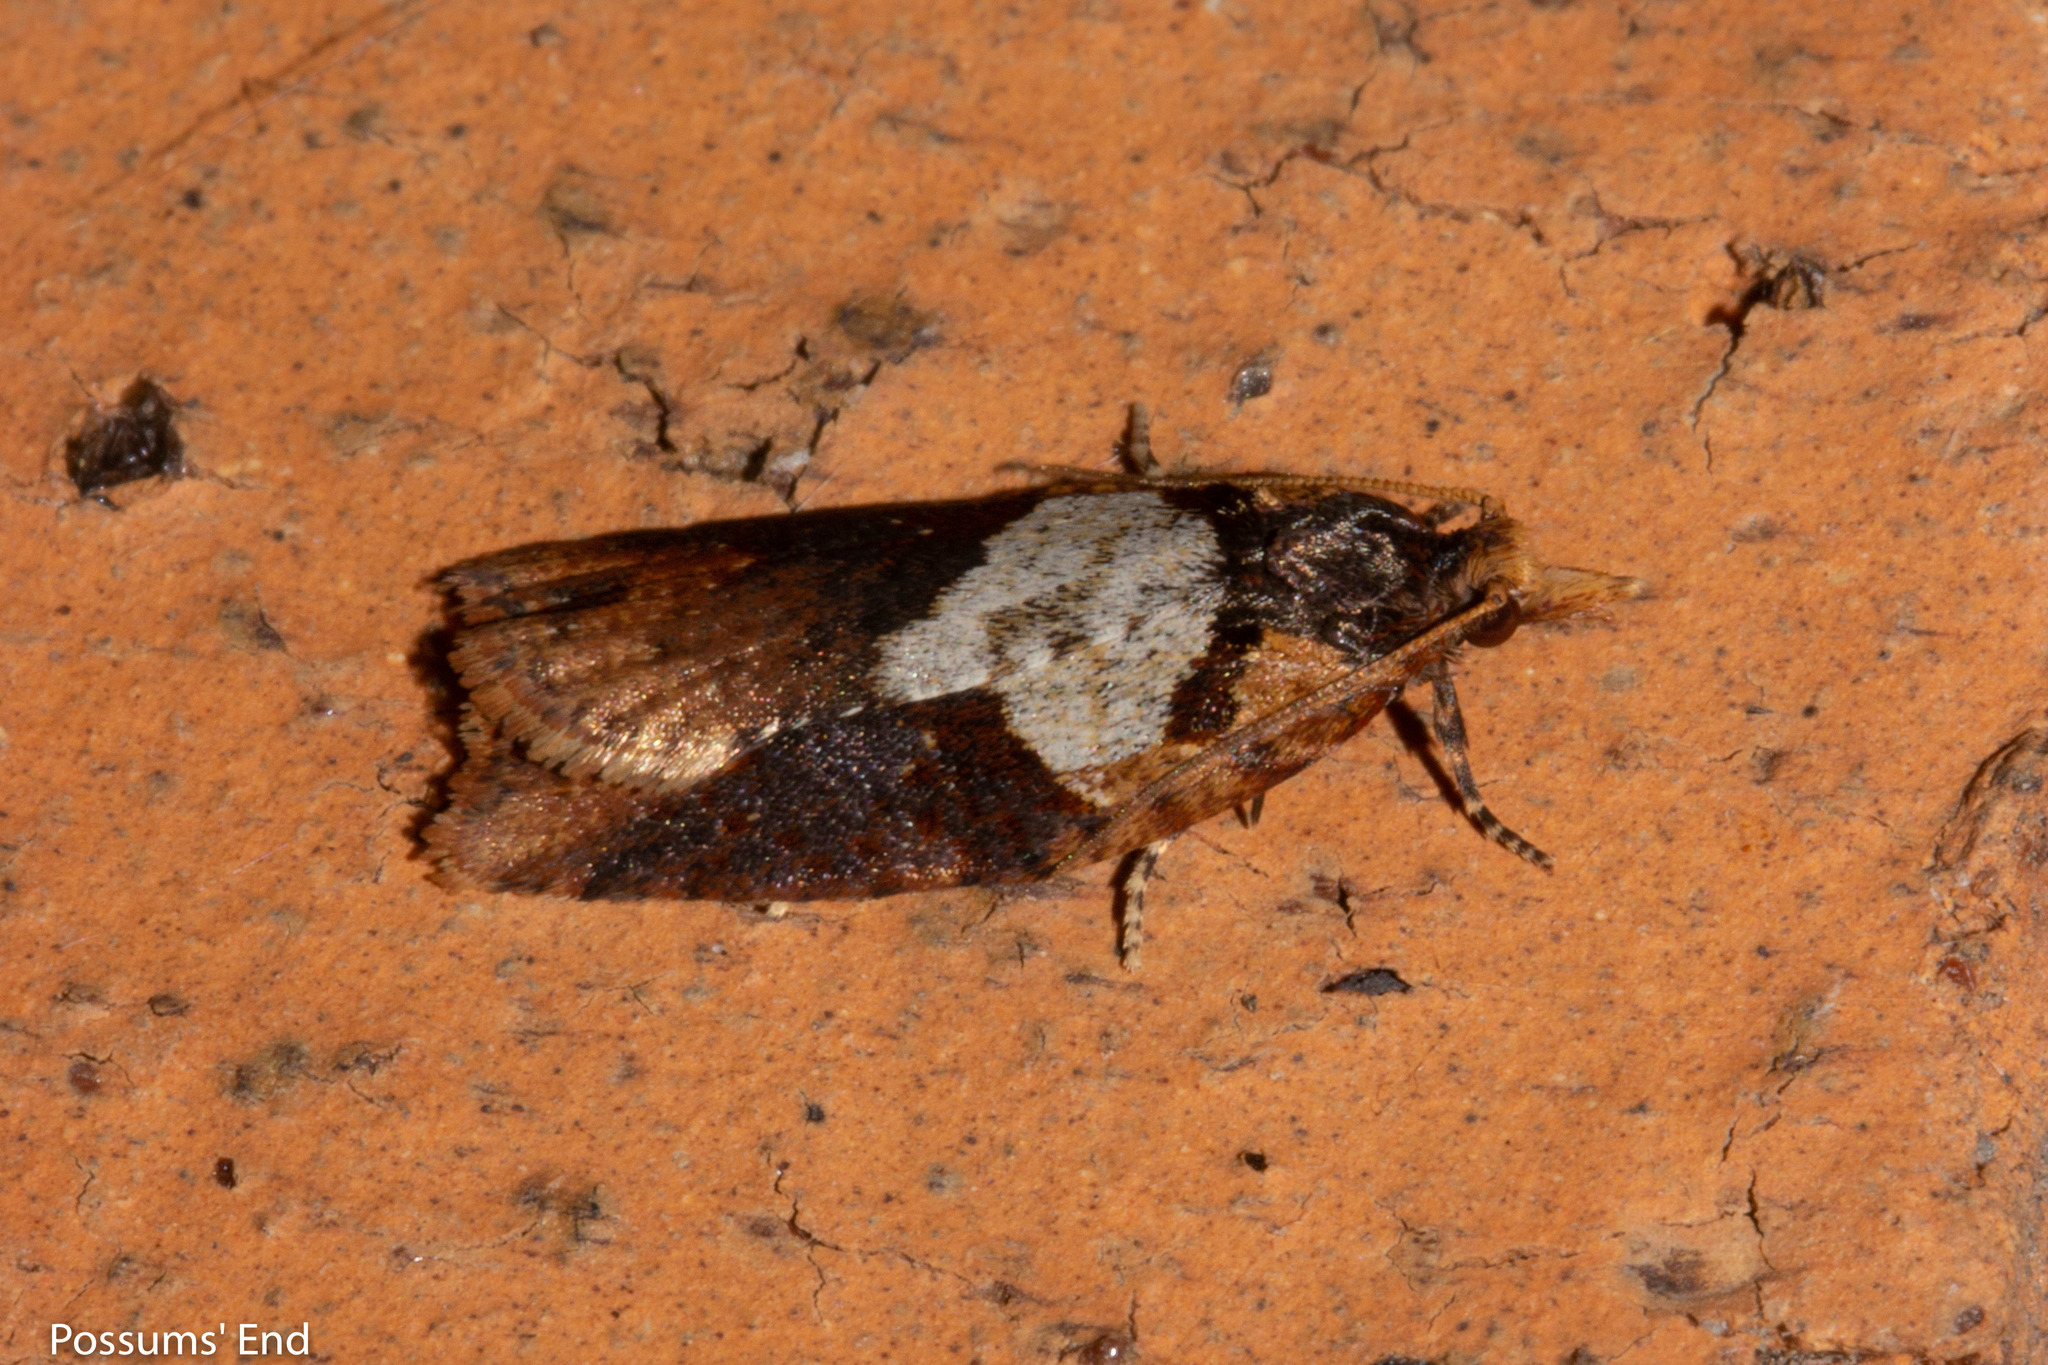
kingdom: Animalia
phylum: Arthropoda
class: Insecta
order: Lepidoptera
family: Tortricidae
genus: Ctenopseustis
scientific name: Ctenopseustis obliquana
